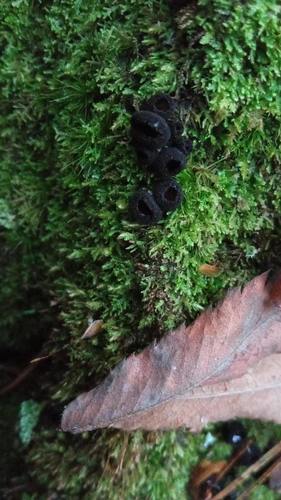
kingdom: Fungi
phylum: Ascomycota
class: Pezizomycetes
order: Pezizales
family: Sarcosomataceae
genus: Pseudoplectania
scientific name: Pseudoplectania nigrella
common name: Ebony cup
